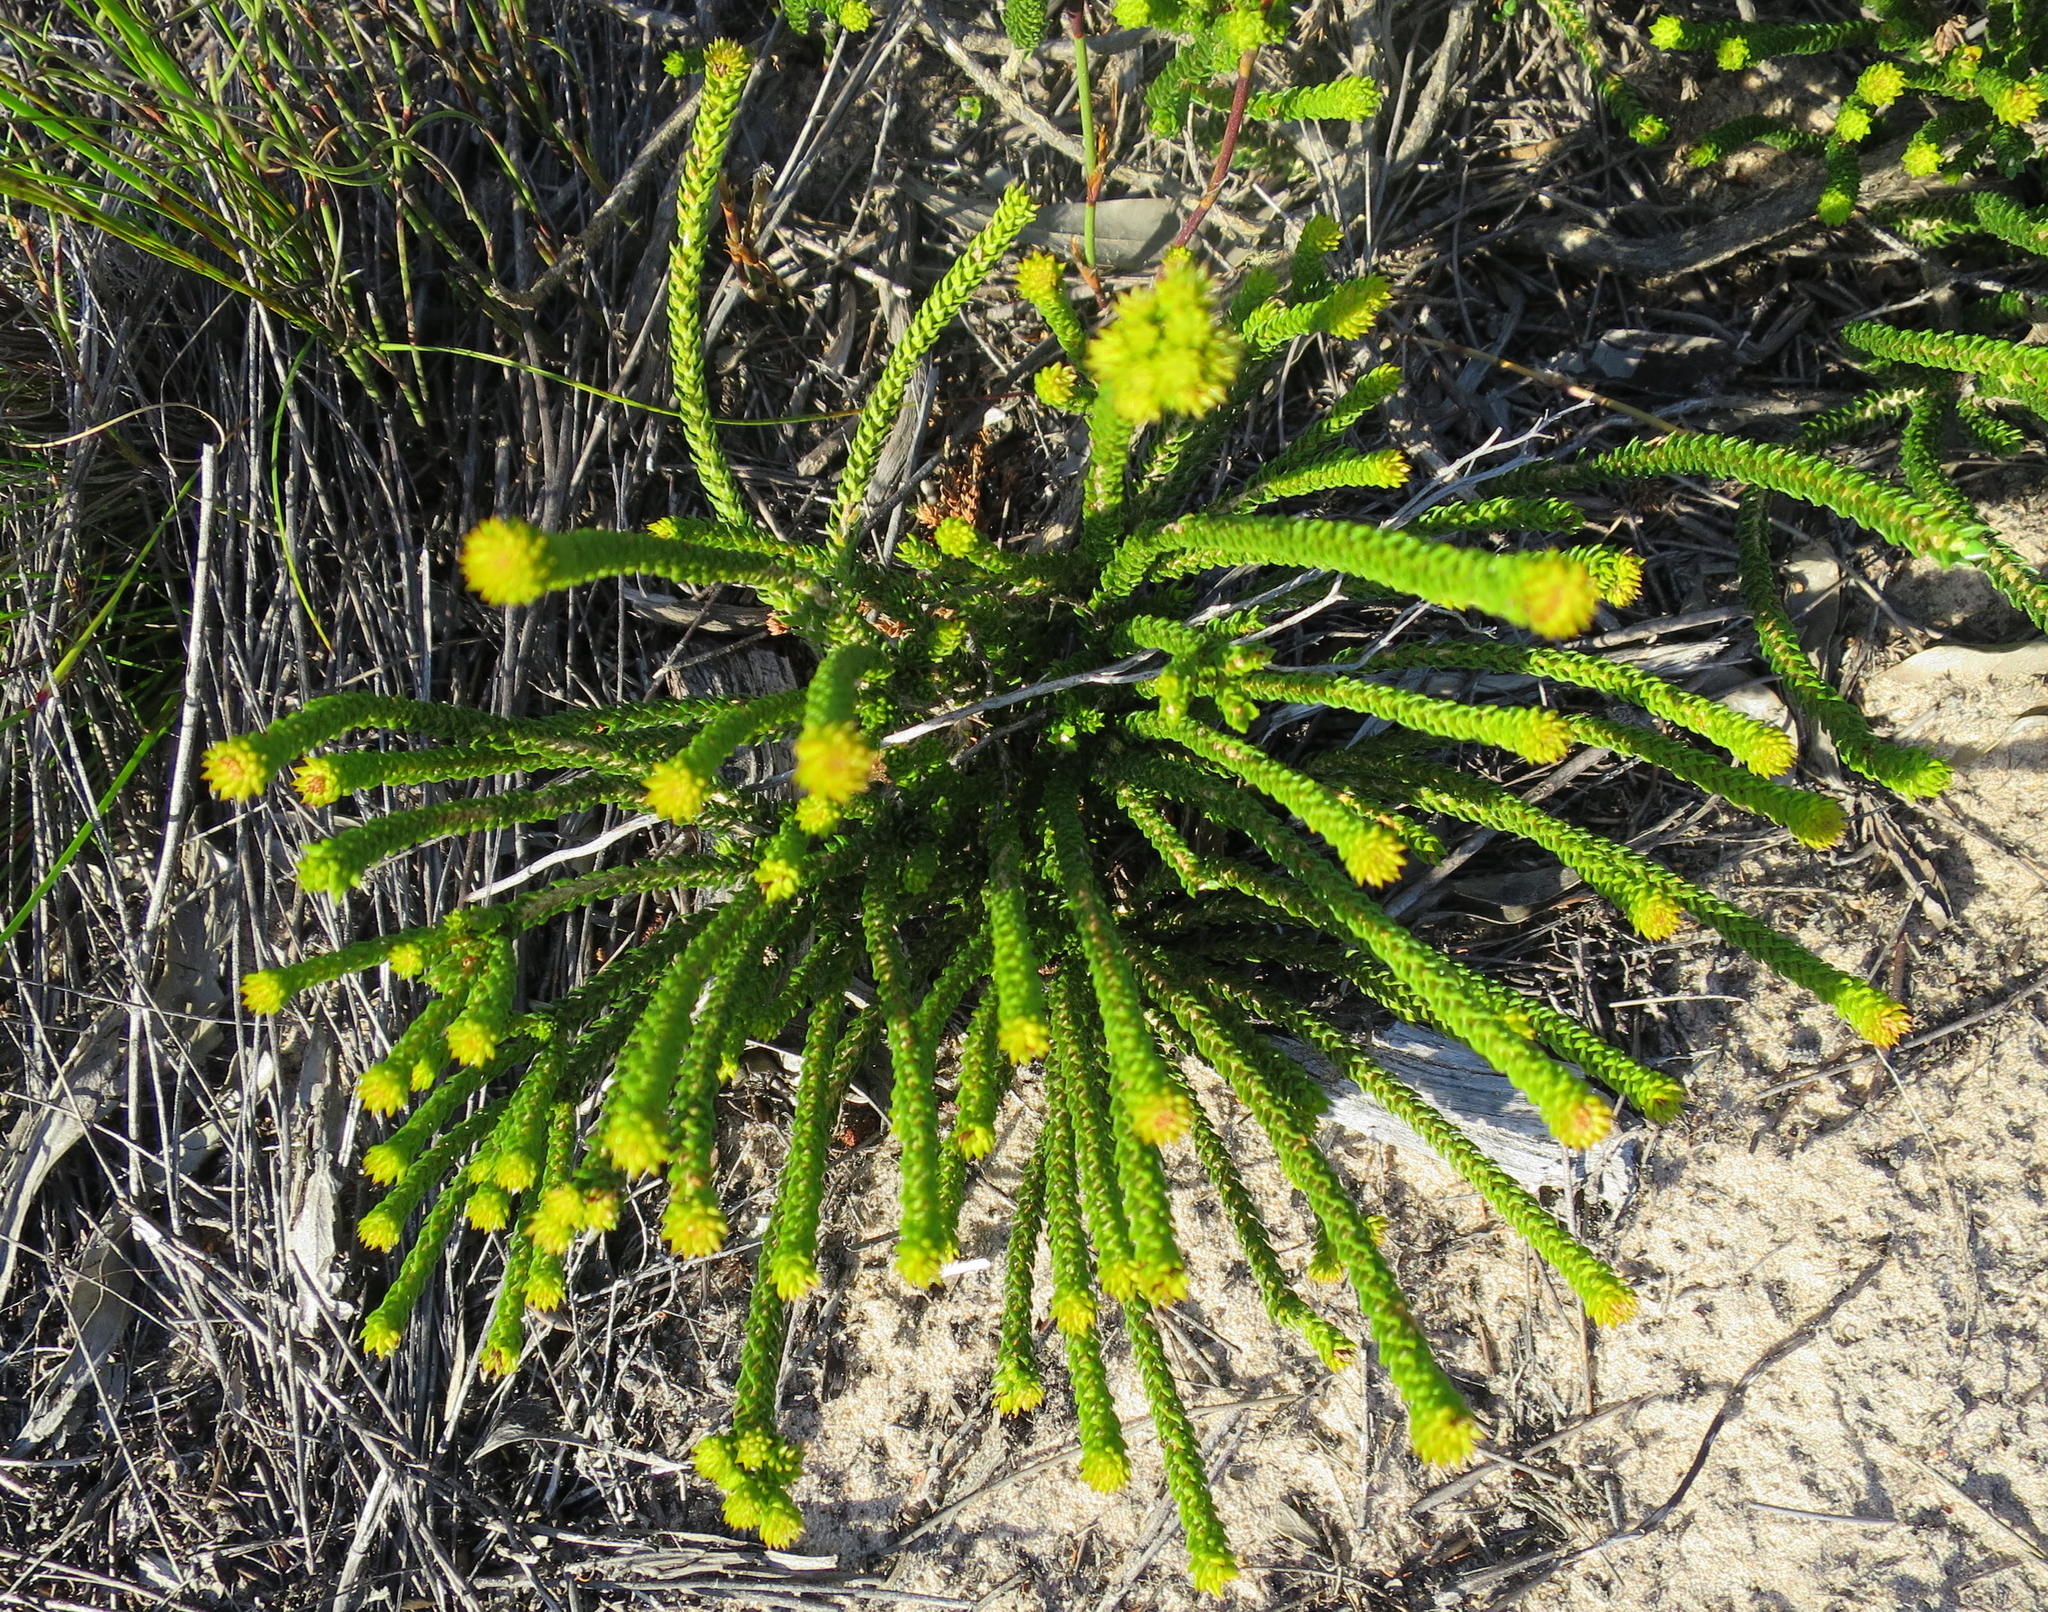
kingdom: Plantae
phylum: Tracheophyta
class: Magnoliopsida
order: Sapindales
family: Rutaceae
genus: Agathosma
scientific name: Agathosma eriantha
